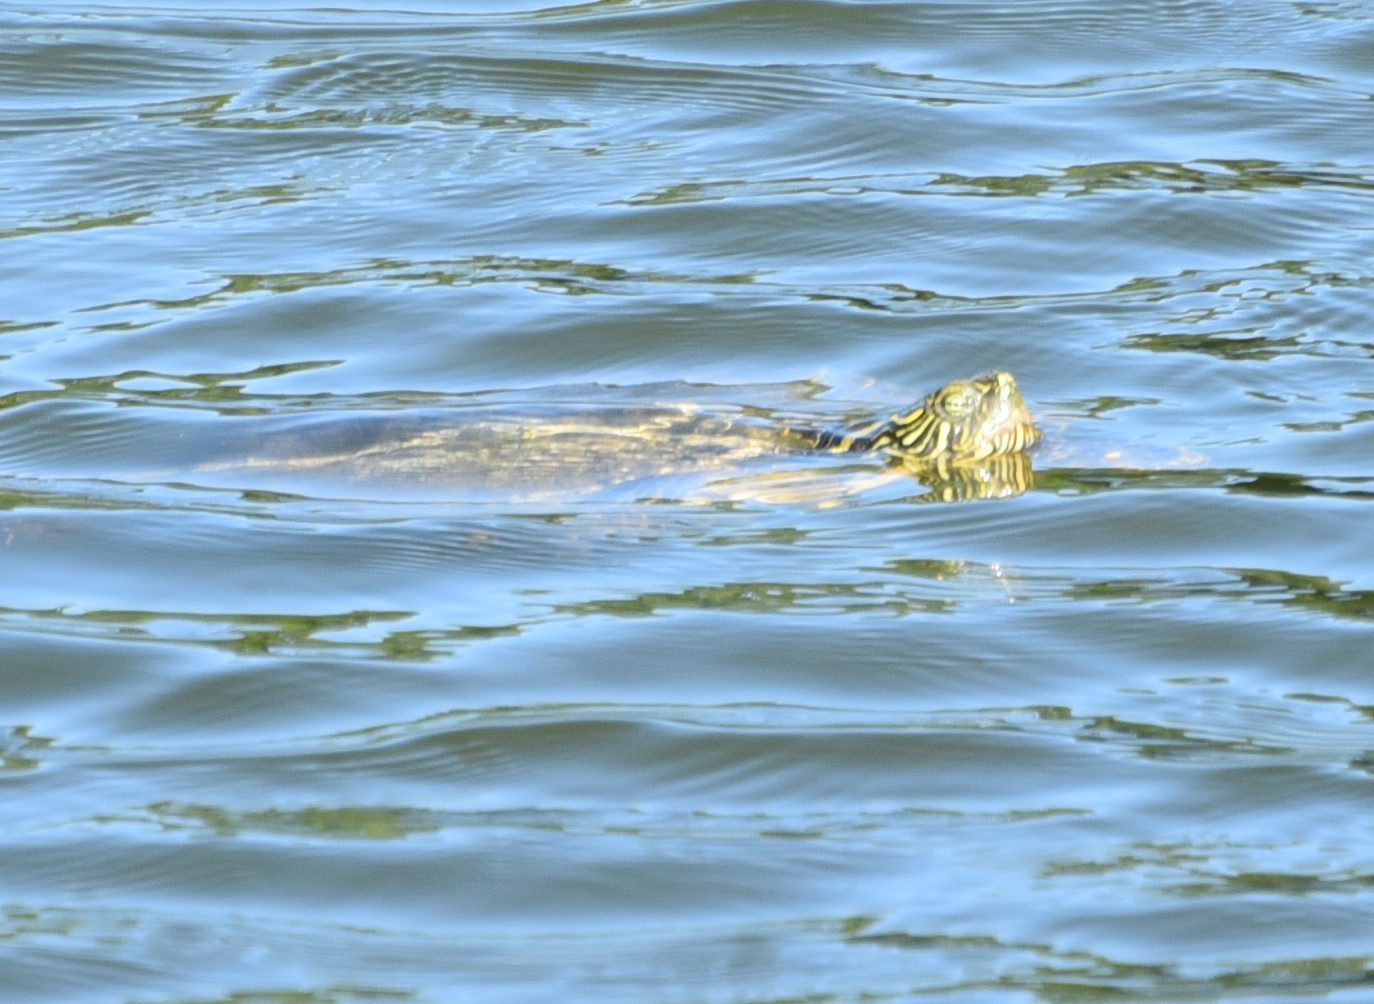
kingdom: Animalia
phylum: Chordata
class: Testudines
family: Emydidae
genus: Pseudemys
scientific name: Pseudemys texana
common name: Texas river cooter
